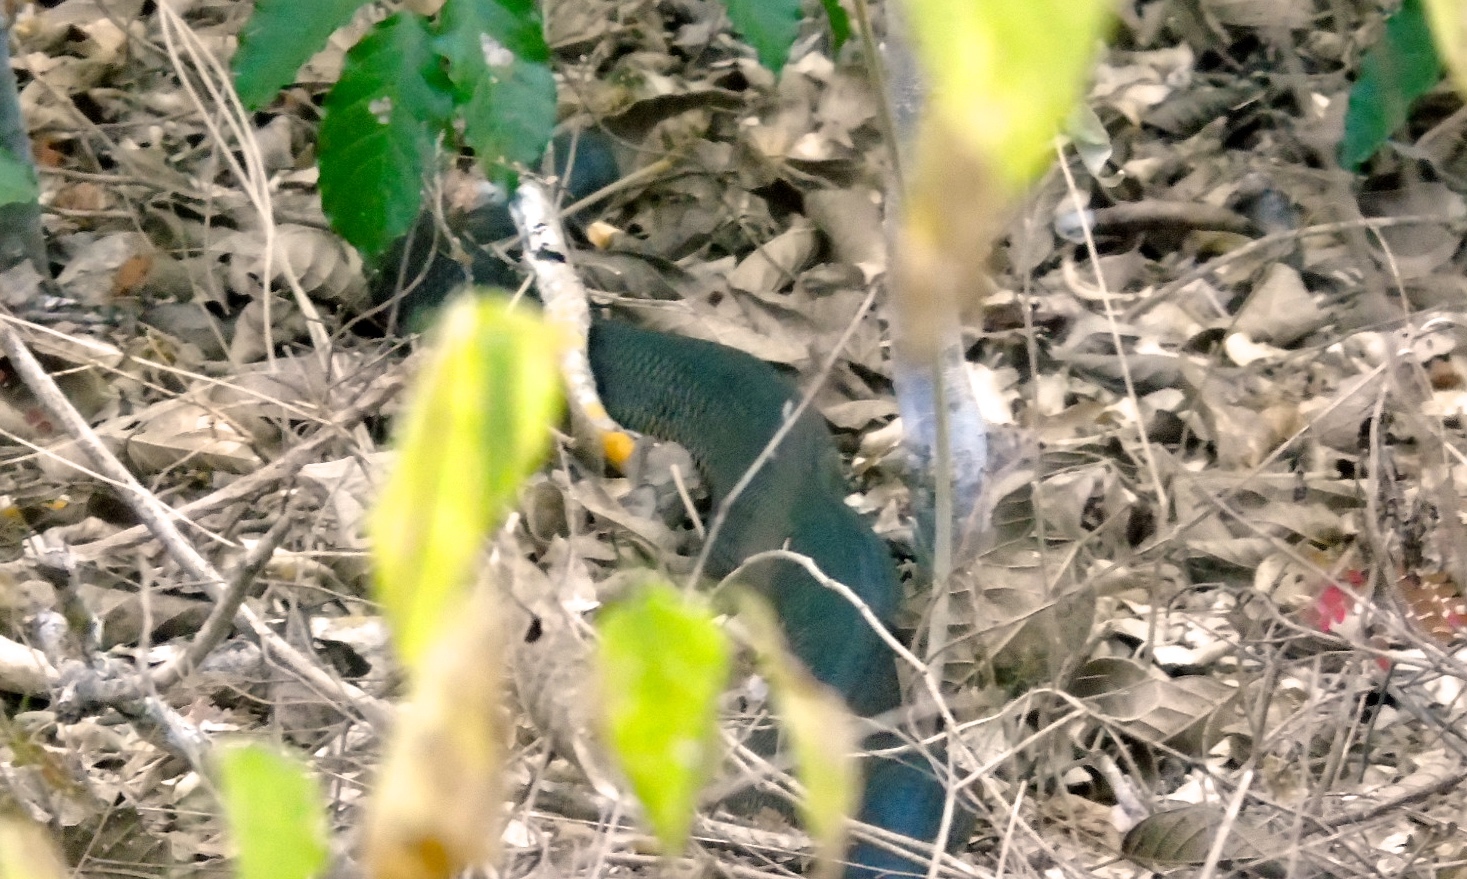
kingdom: Animalia
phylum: Chordata
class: Squamata
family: Colubridae
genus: Drymarchon
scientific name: Drymarchon melanurus
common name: Central american indigo snake
